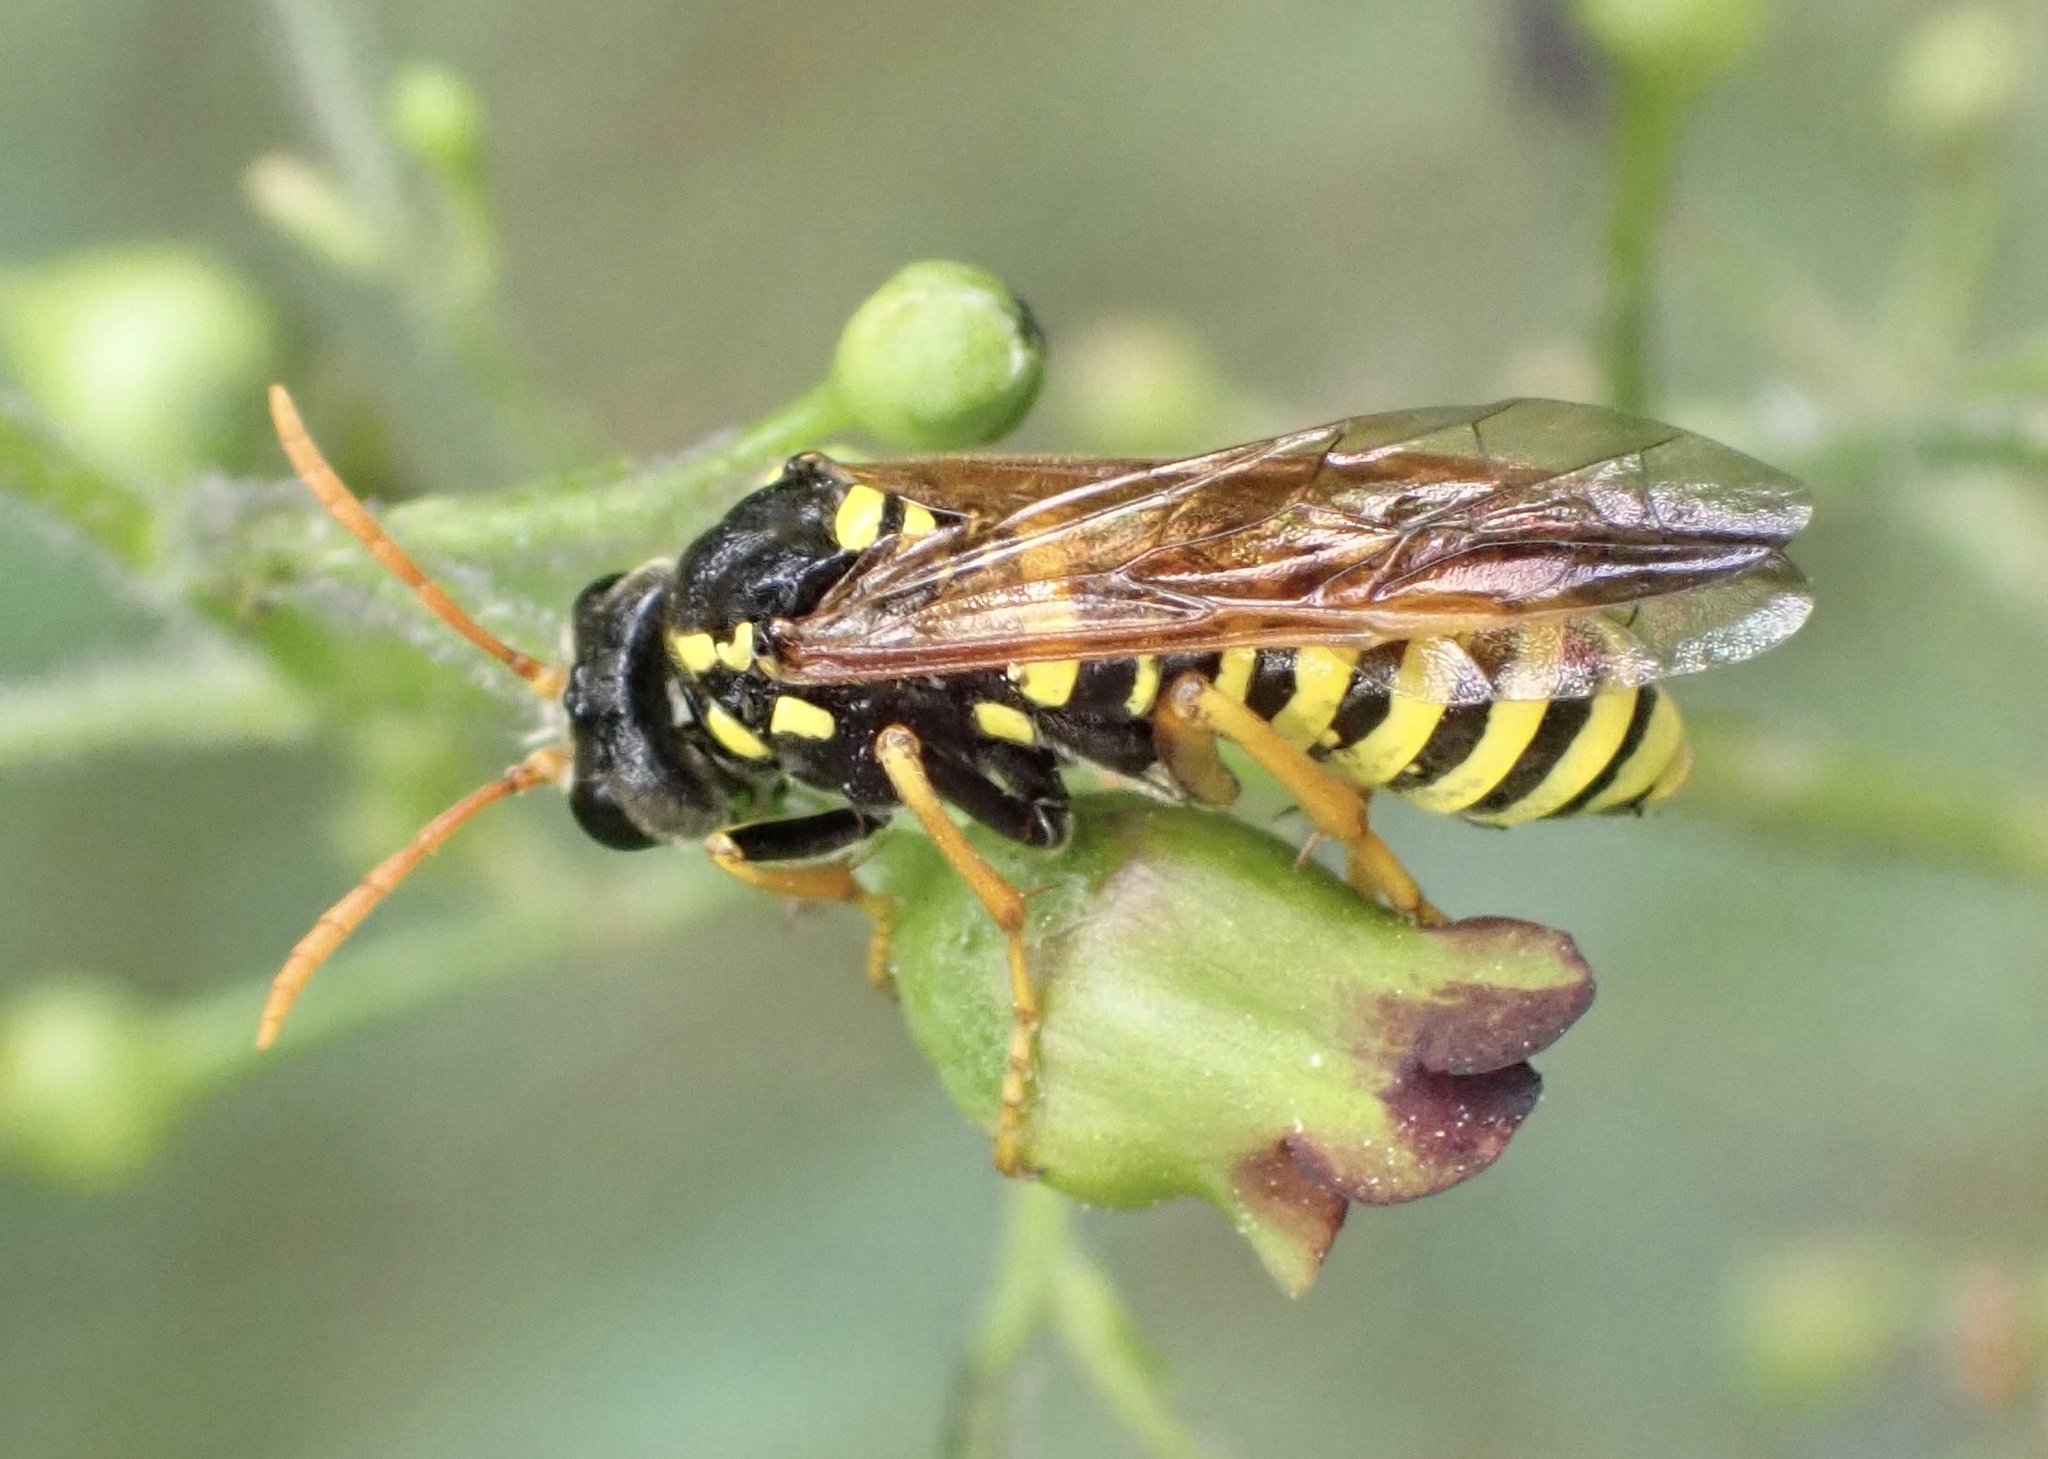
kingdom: Animalia
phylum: Arthropoda
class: Insecta
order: Hymenoptera
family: Tenthredinidae
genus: Tenthredo
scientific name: Tenthredo scrophulariae
